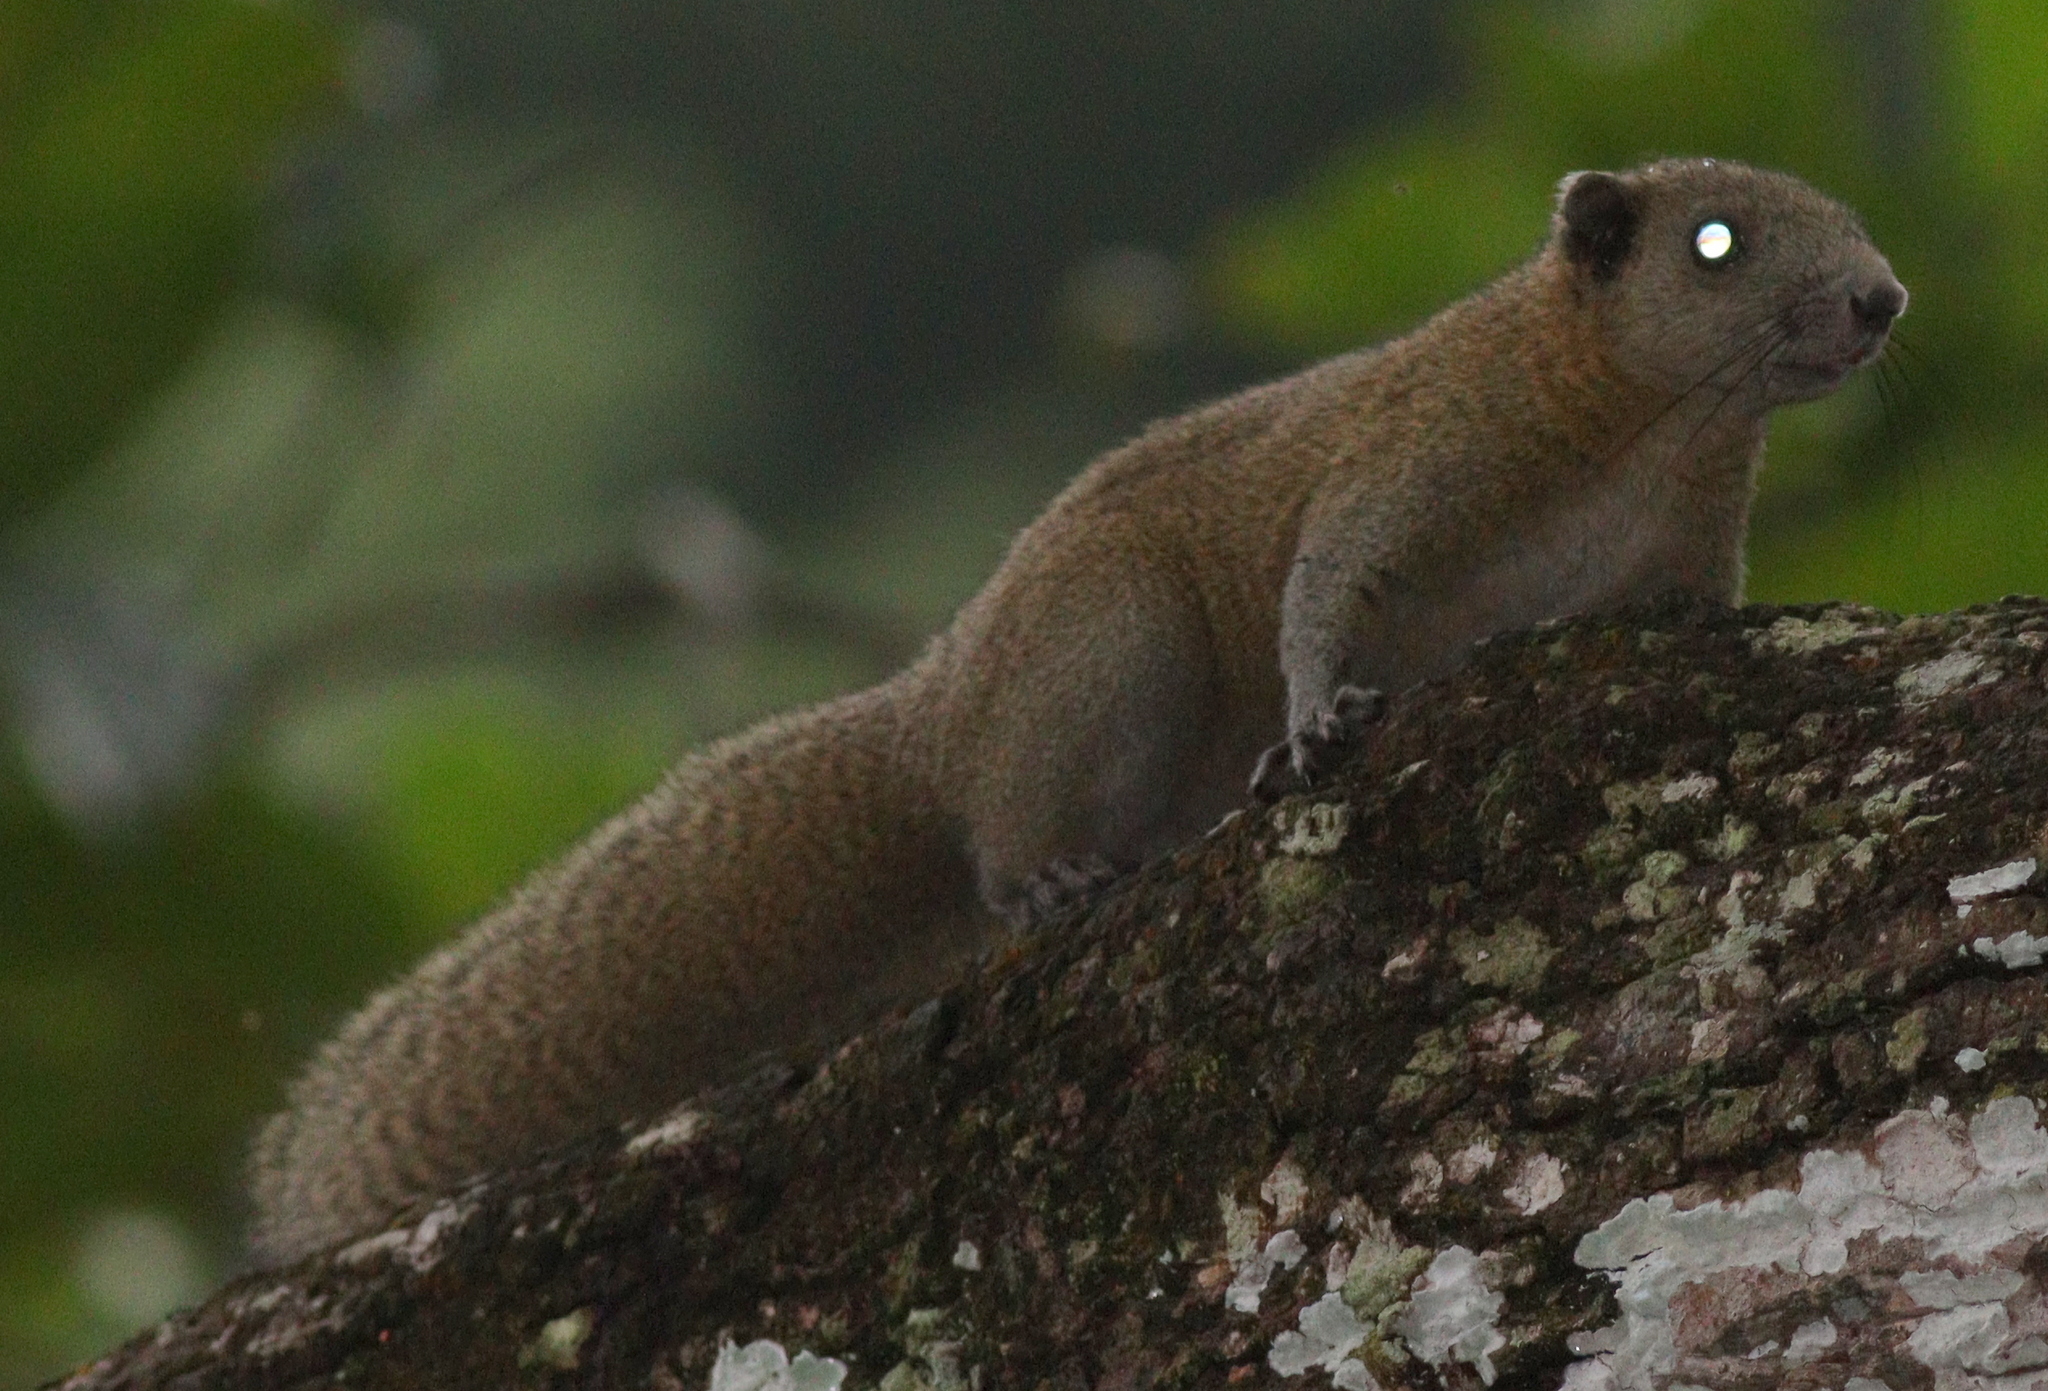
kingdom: Animalia
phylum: Chordata
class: Mammalia
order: Rodentia
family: Sciuridae
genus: Callosciurus
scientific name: Callosciurus erythraeus
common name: Pallas's squirrel
